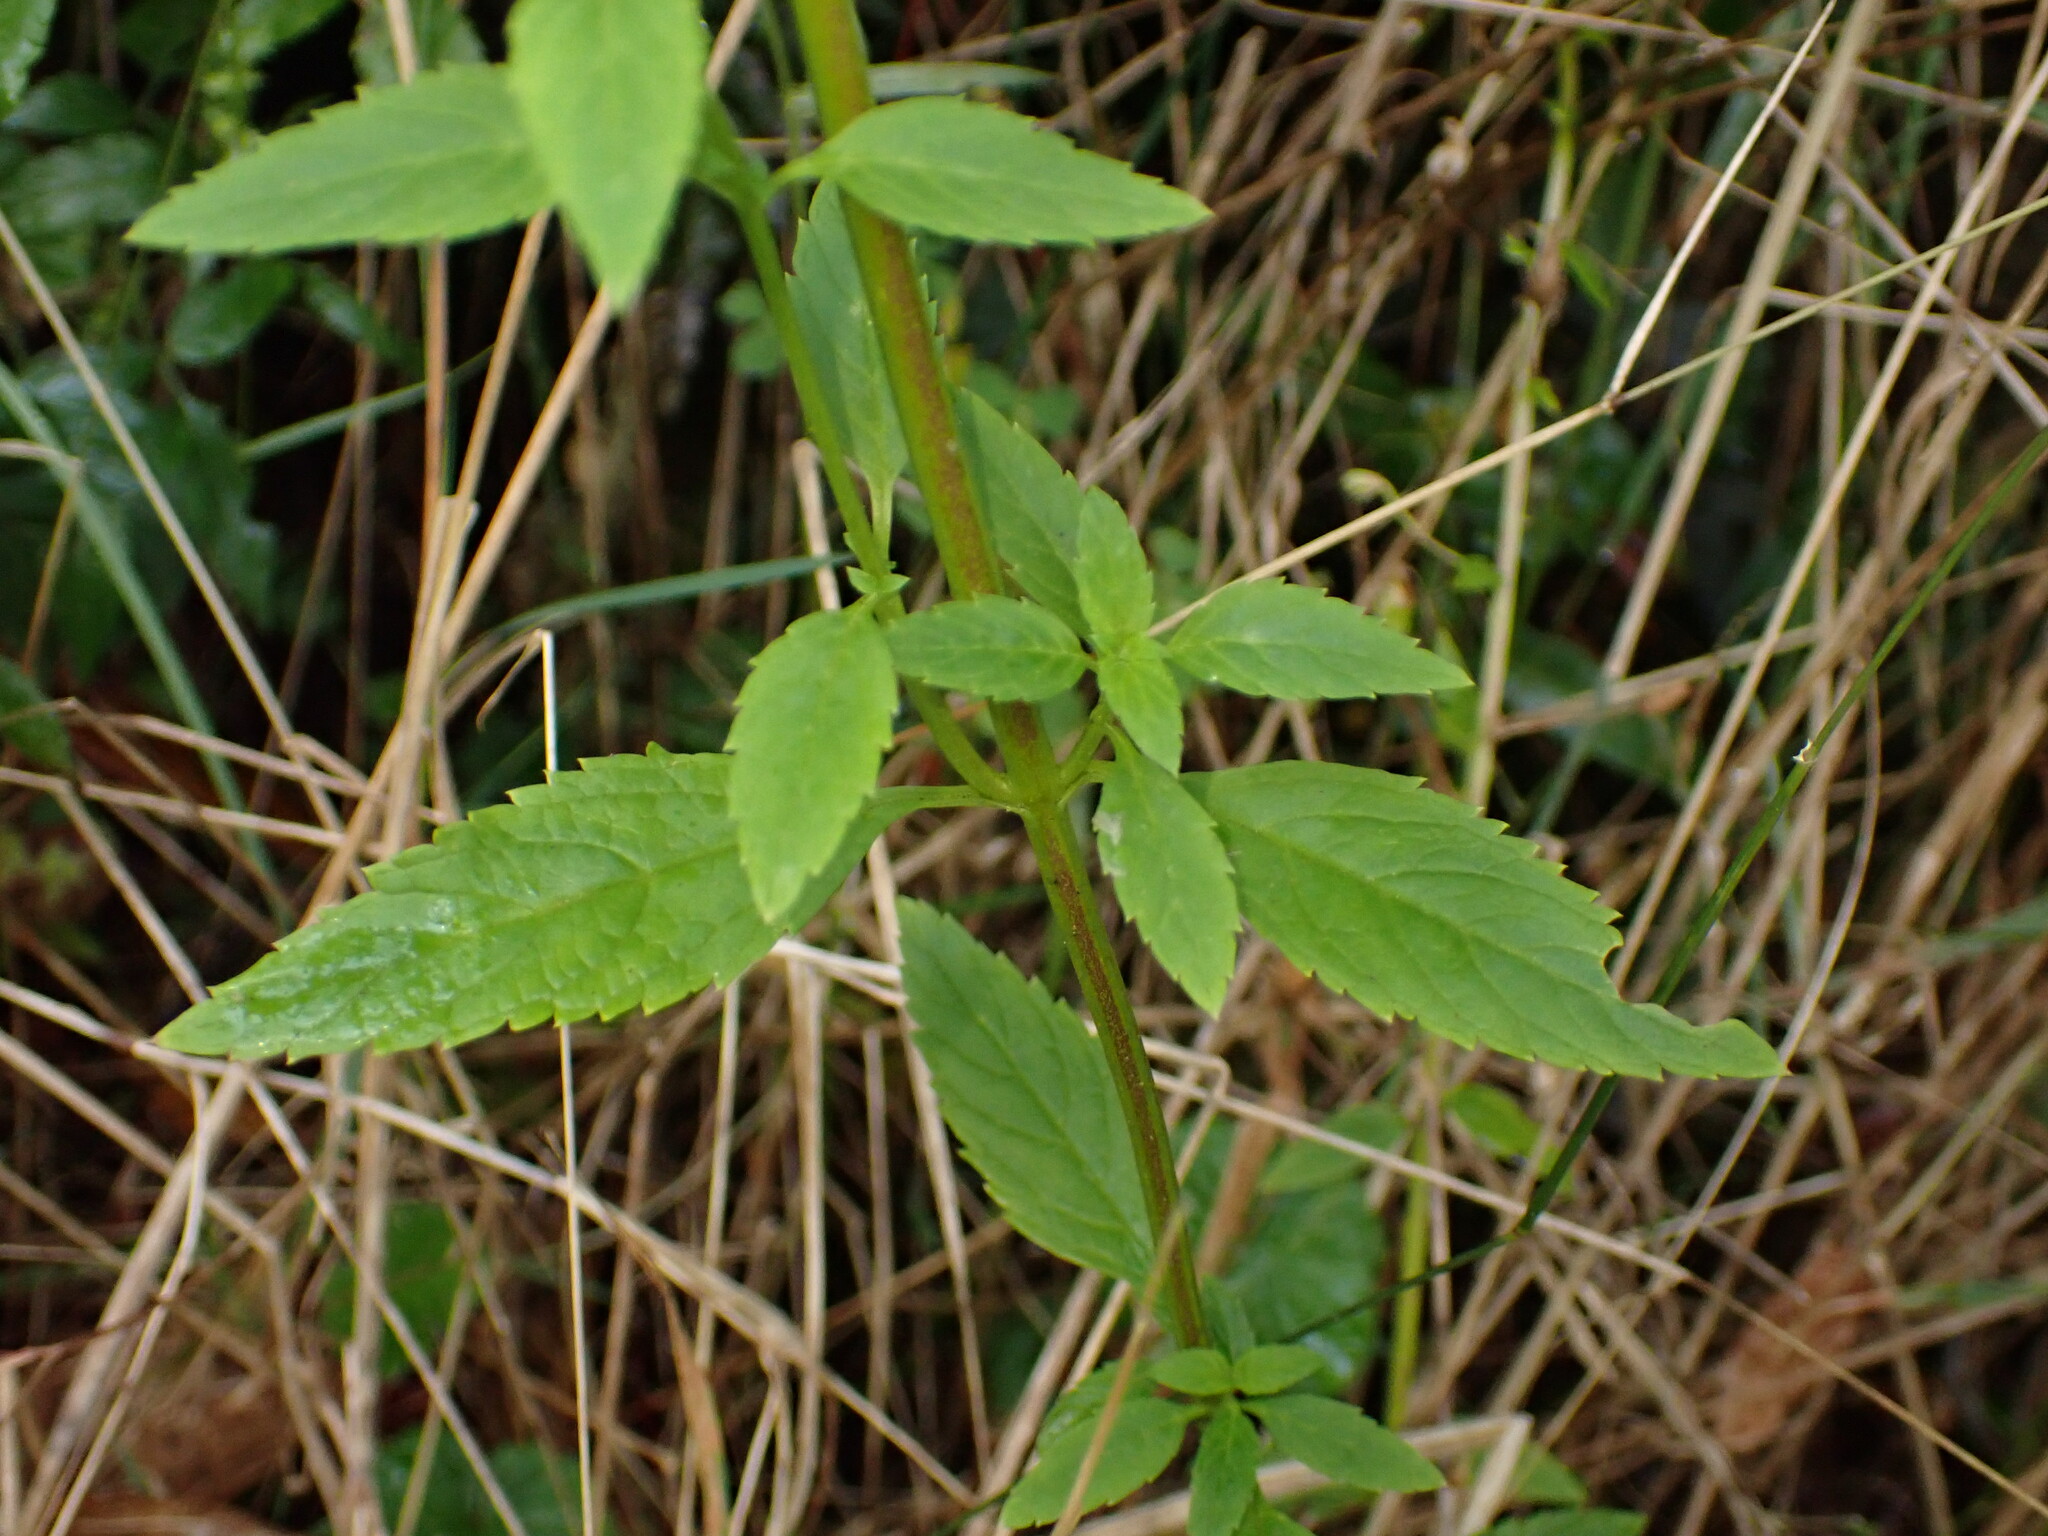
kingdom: Plantae
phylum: Tracheophyta
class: Magnoliopsida
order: Lamiales
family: Scrophulariaceae
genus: Alonsoa
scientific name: Alonsoa meridionalis
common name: Maskflower
